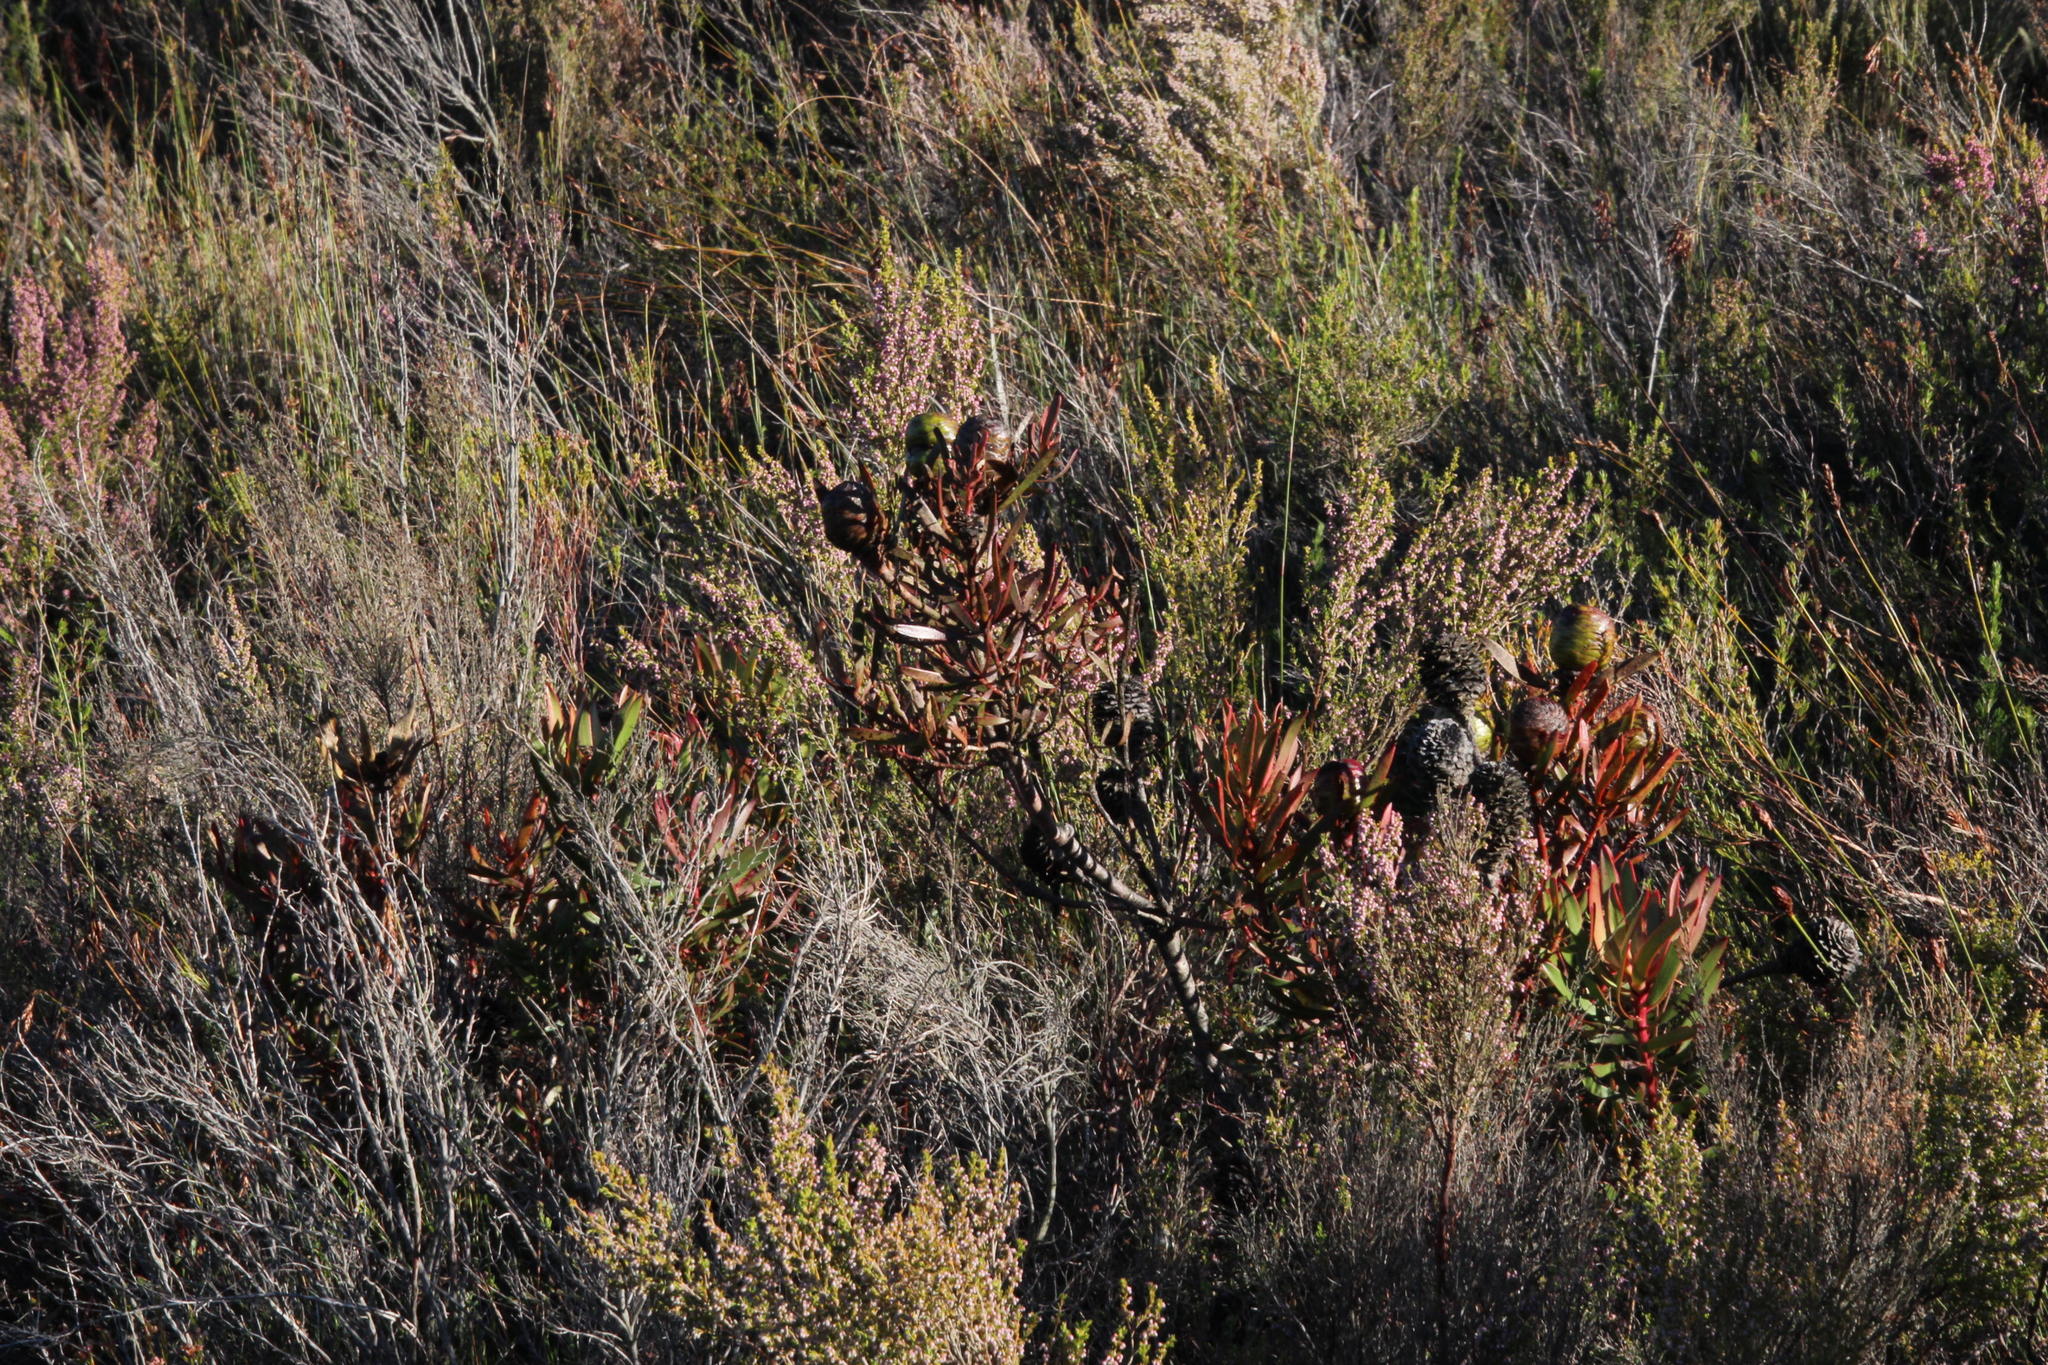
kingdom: Plantae
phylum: Tracheophyta
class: Magnoliopsida
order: Proteales
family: Proteaceae
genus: Leucadendron
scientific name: Leucadendron spissifolium
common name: Spear-leaf conebush
